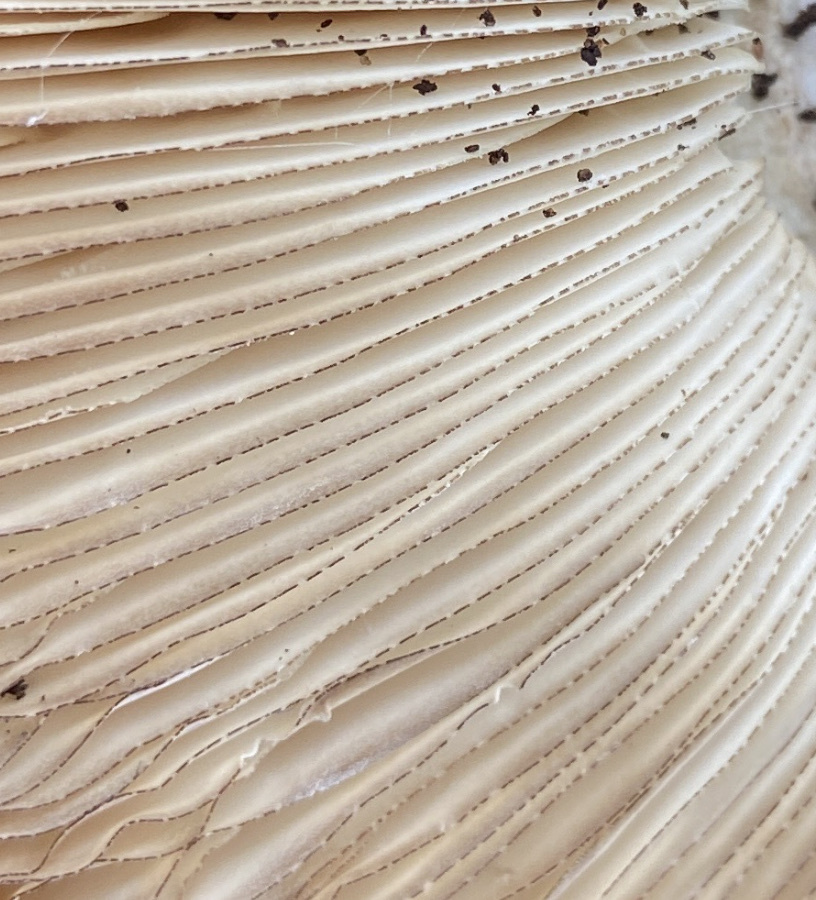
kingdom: Fungi
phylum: Basidiomycota
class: Agaricomycetes
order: Agaricales
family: Pluteaceae
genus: Volvopluteus
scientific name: Volvopluteus gloiocephalus
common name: Stubble rosegill
